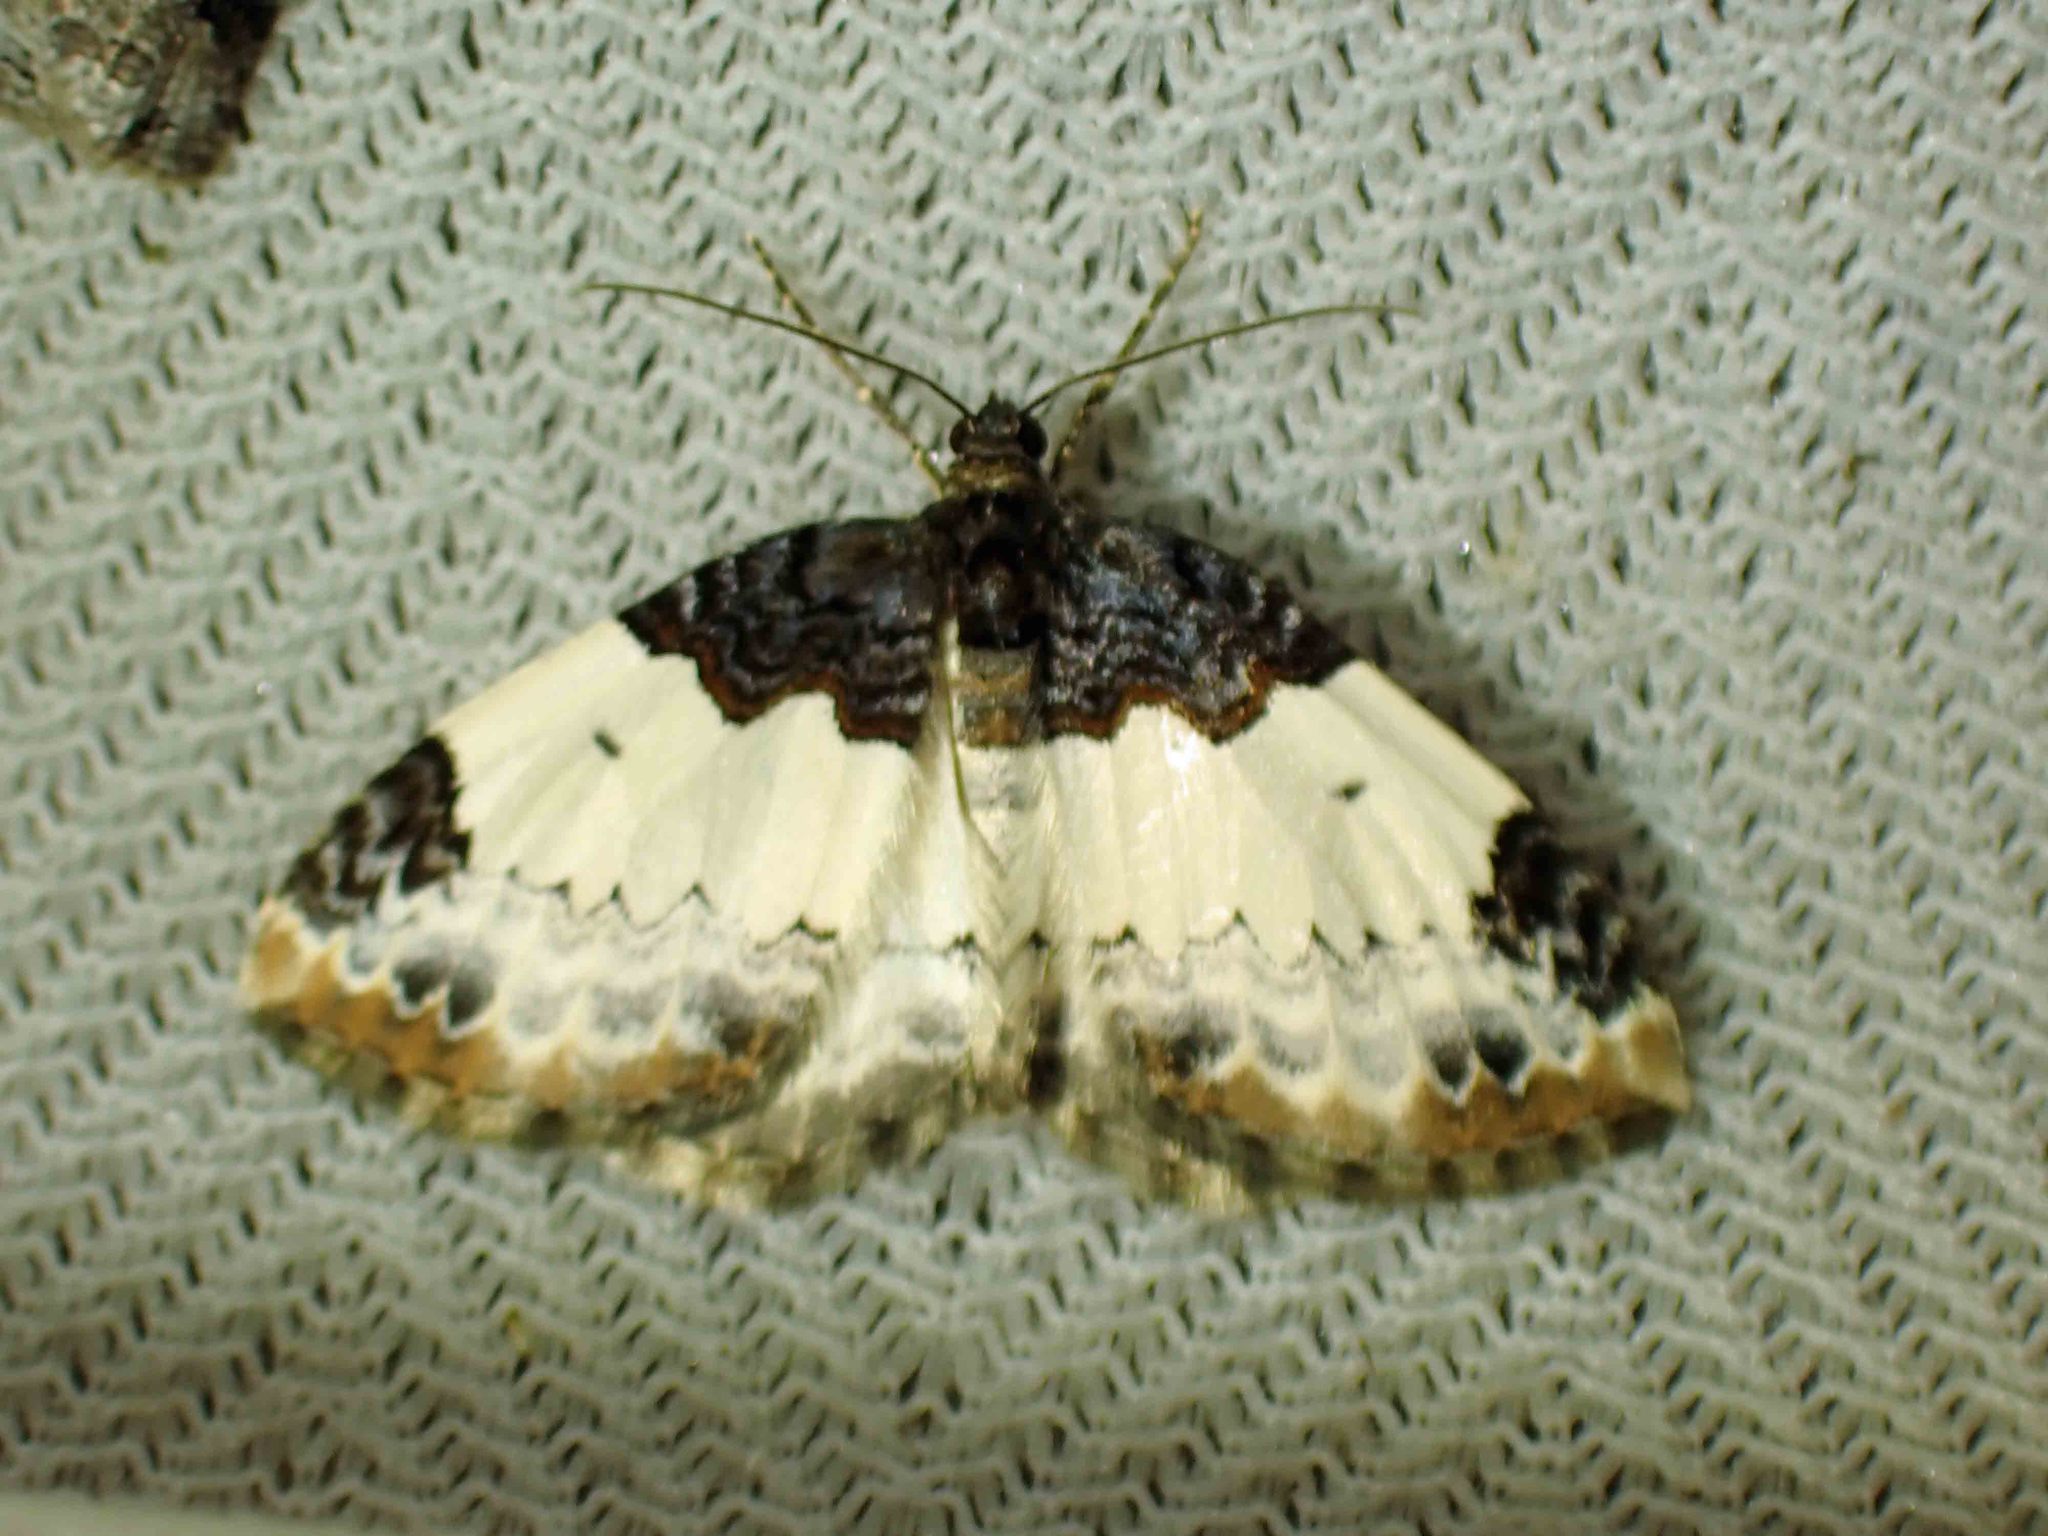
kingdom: Animalia
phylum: Arthropoda
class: Insecta
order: Lepidoptera
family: Geometridae
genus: Mesoleuca
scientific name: Mesoleuca ruficillata
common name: White-ribboned carpet moth
